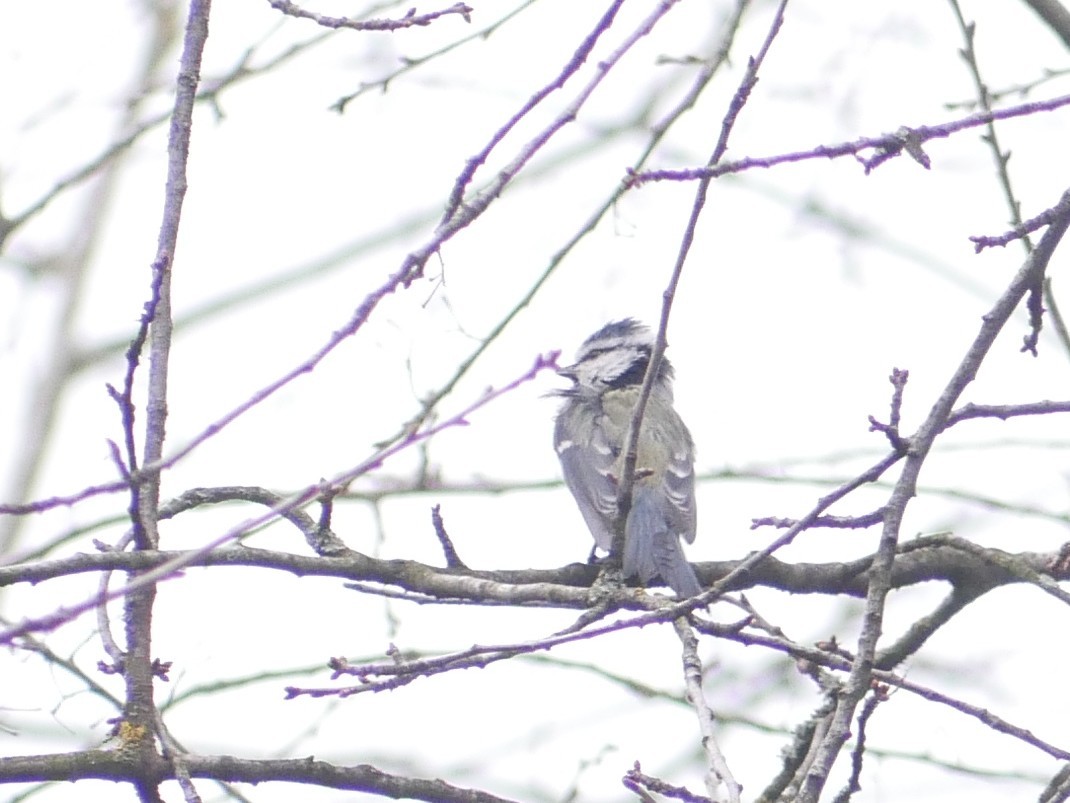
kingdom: Animalia
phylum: Chordata
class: Aves
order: Passeriformes
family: Paridae
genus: Cyanistes
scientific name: Cyanistes caeruleus
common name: Eurasian blue tit
